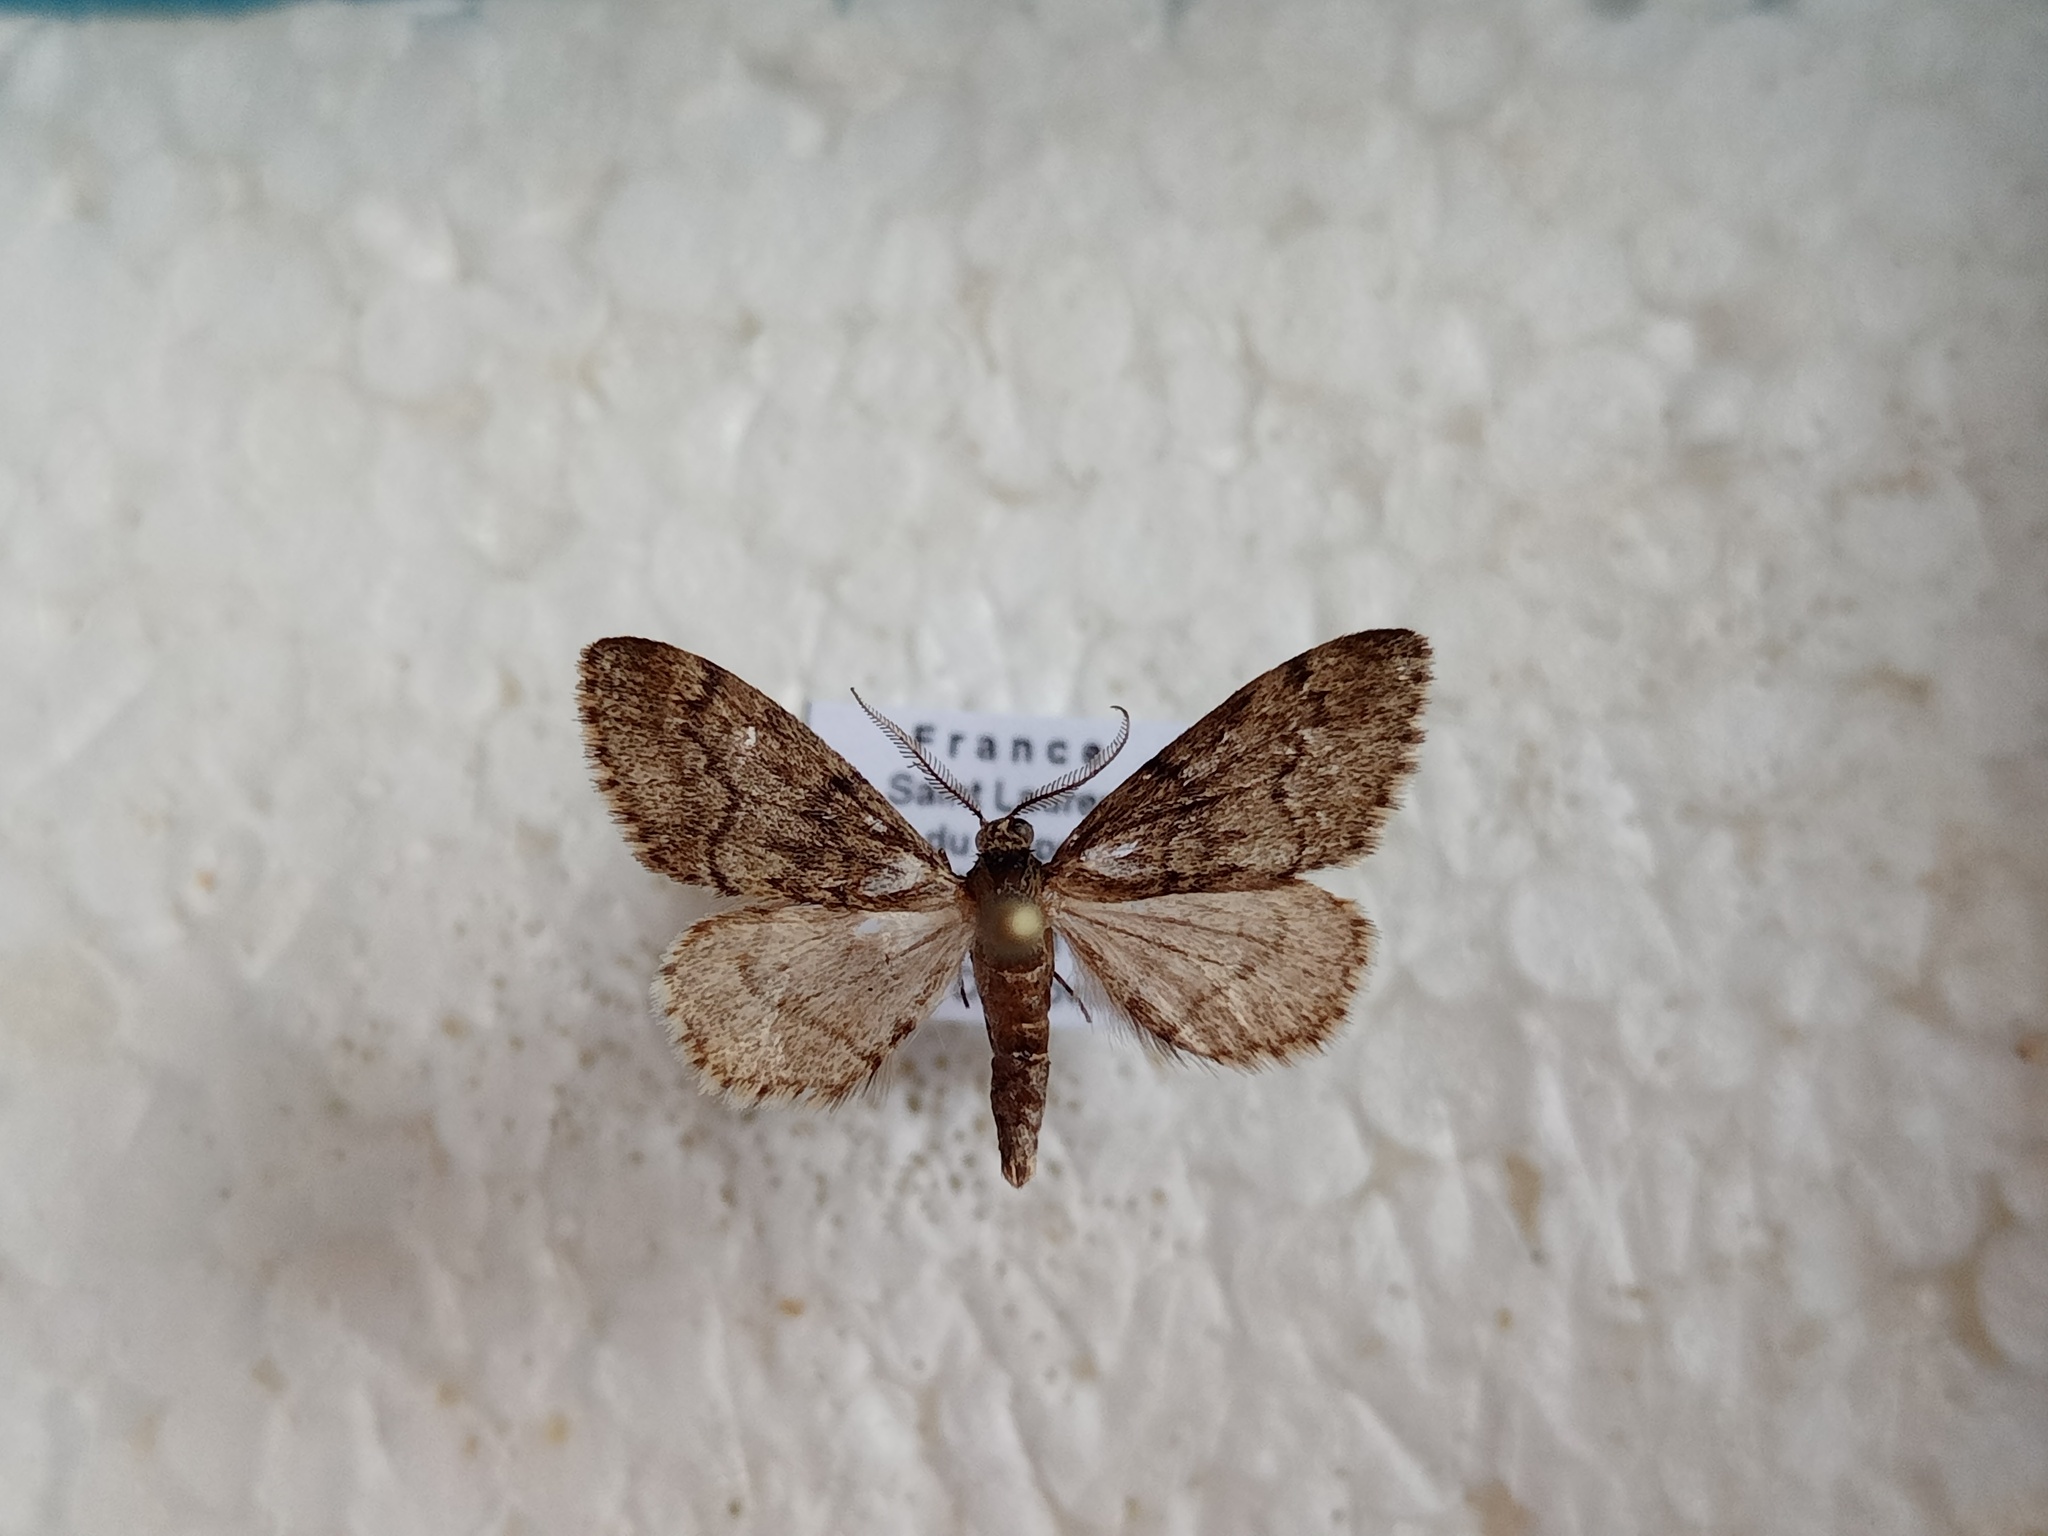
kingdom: Animalia
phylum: Arthropoda
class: Insecta
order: Lepidoptera
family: Geometridae
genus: Tephronia
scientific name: Tephronia sepiaria
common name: Dusky carpet
